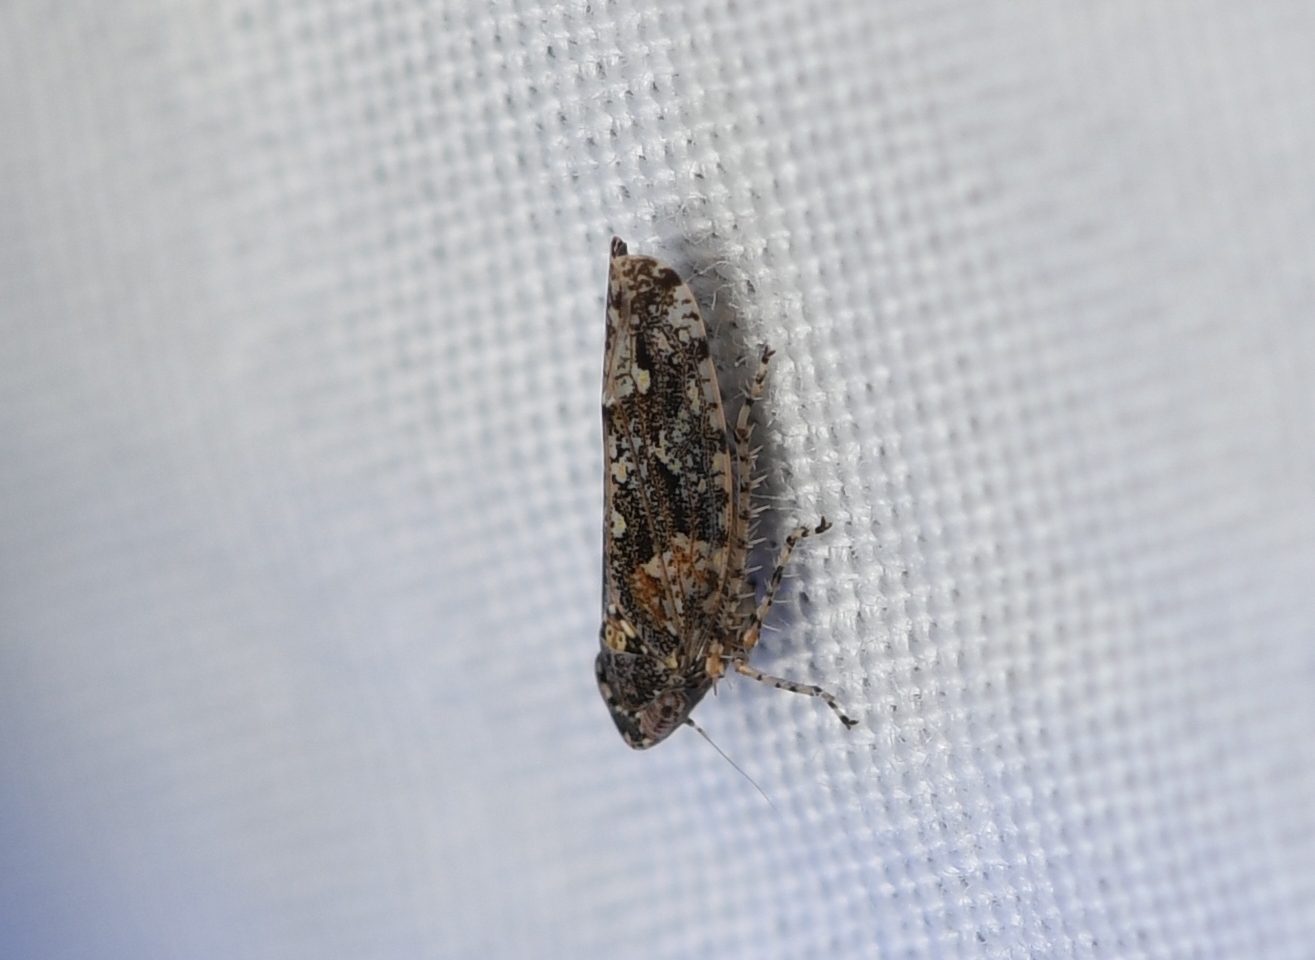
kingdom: Animalia
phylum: Arthropoda
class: Insecta
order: Hemiptera
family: Cicadellidae
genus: Dixianus
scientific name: Dixianus utahnus
